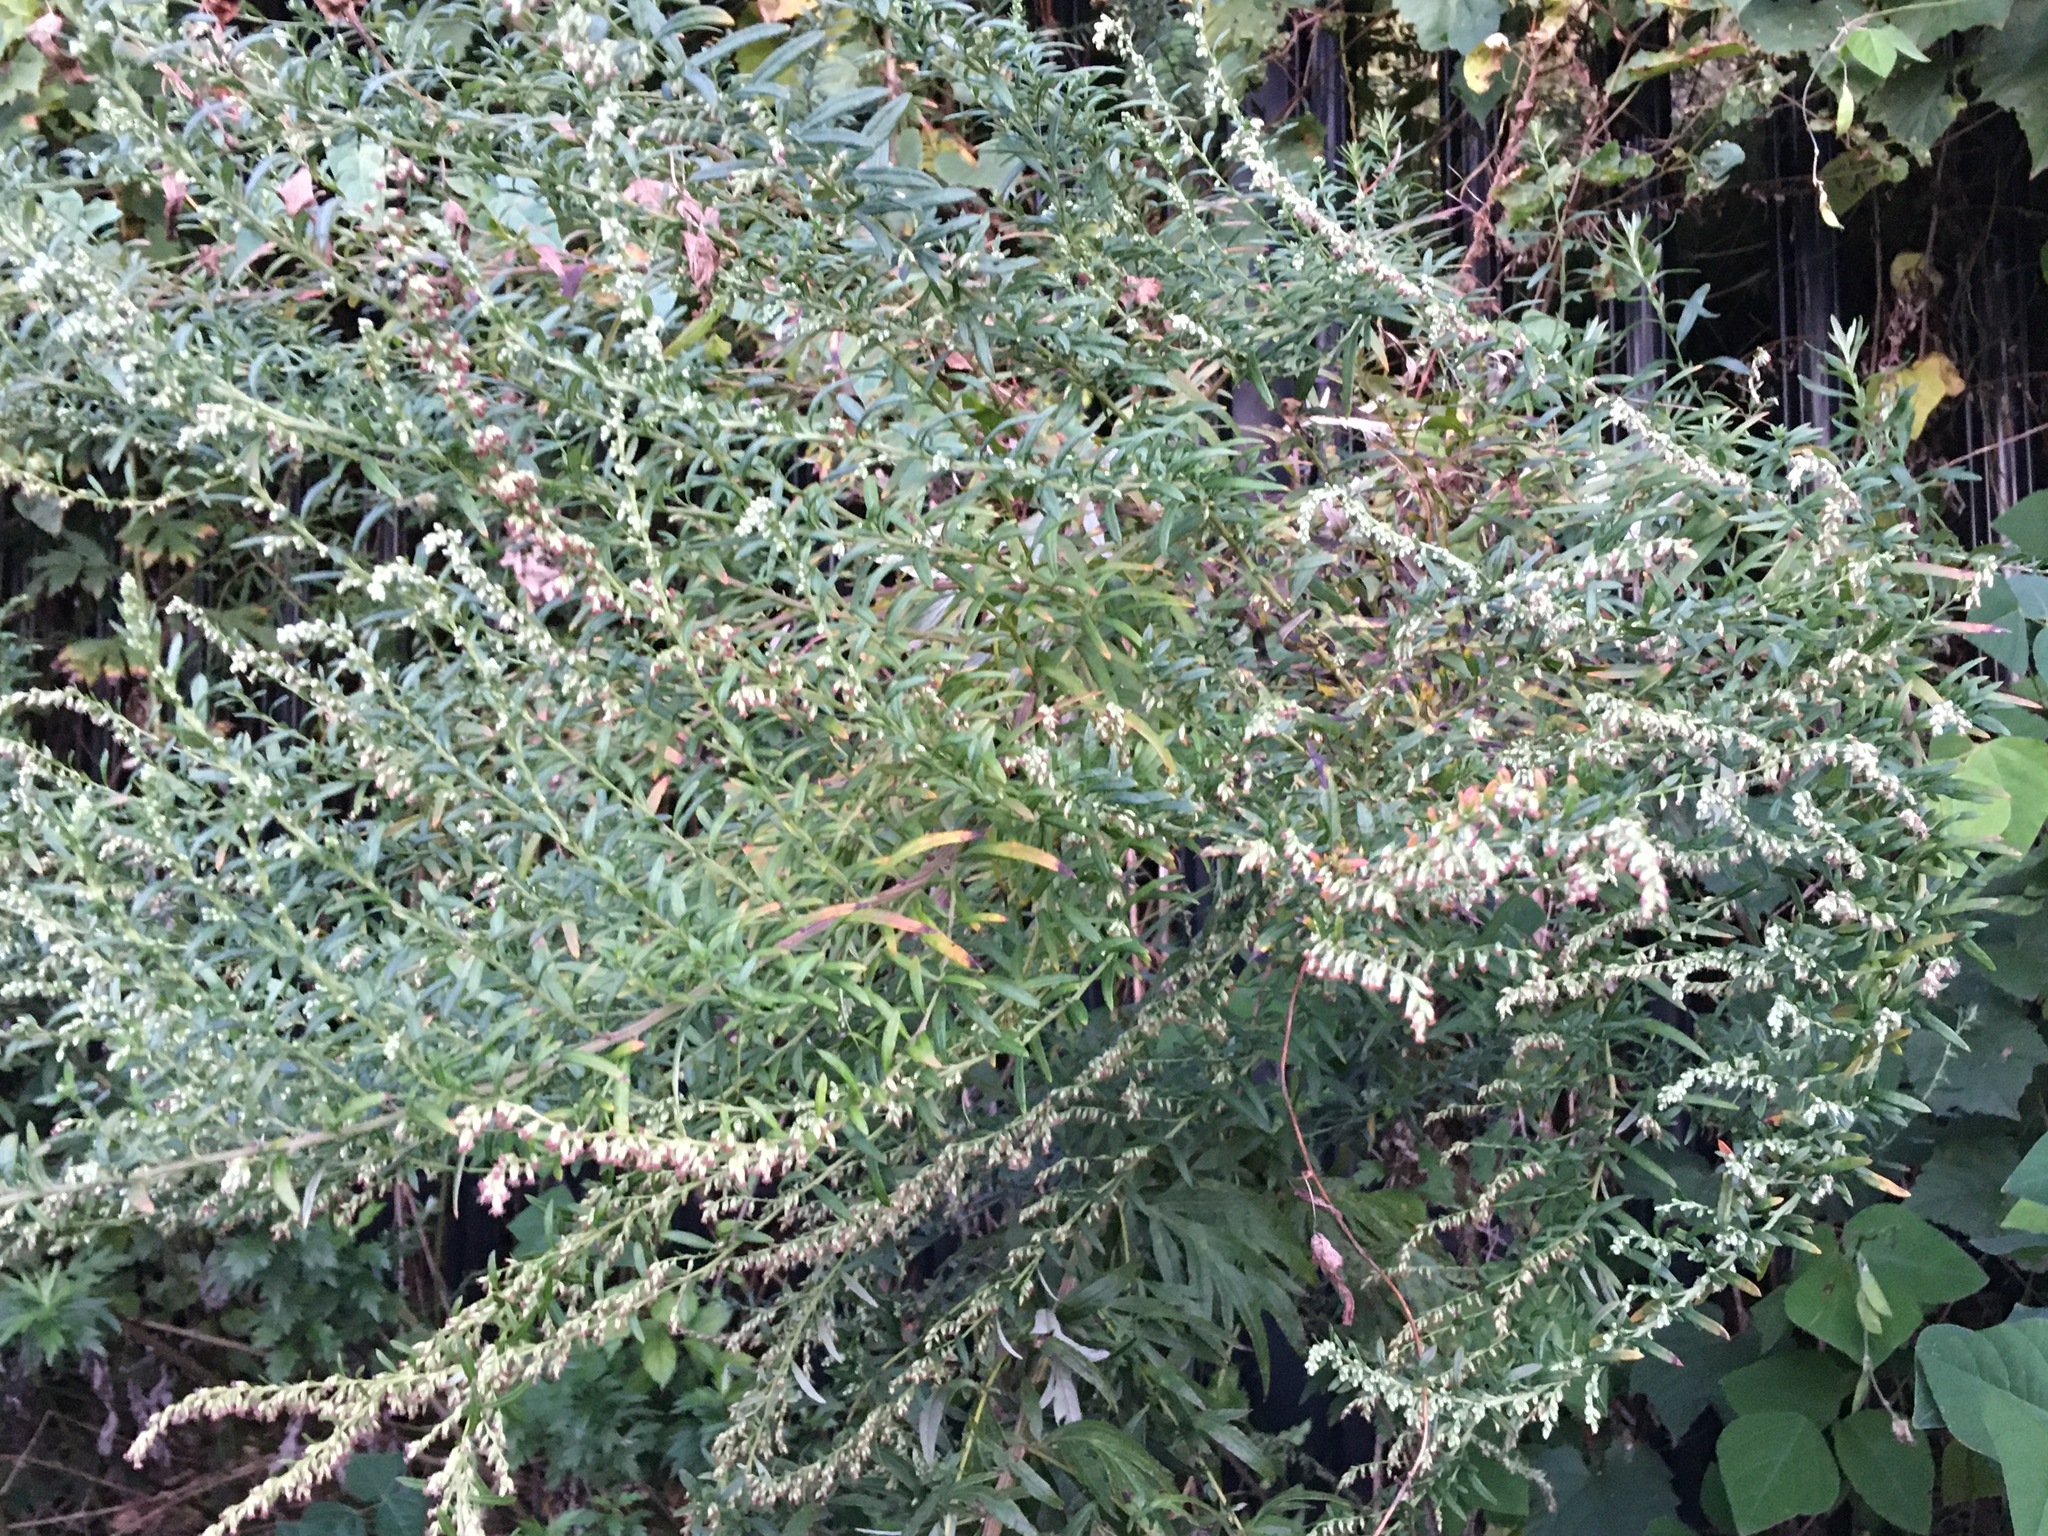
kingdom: Plantae
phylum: Tracheophyta
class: Magnoliopsida
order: Asterales
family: Asteraceae
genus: Artemisia
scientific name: Artemisia vulgaris
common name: Mugwort
